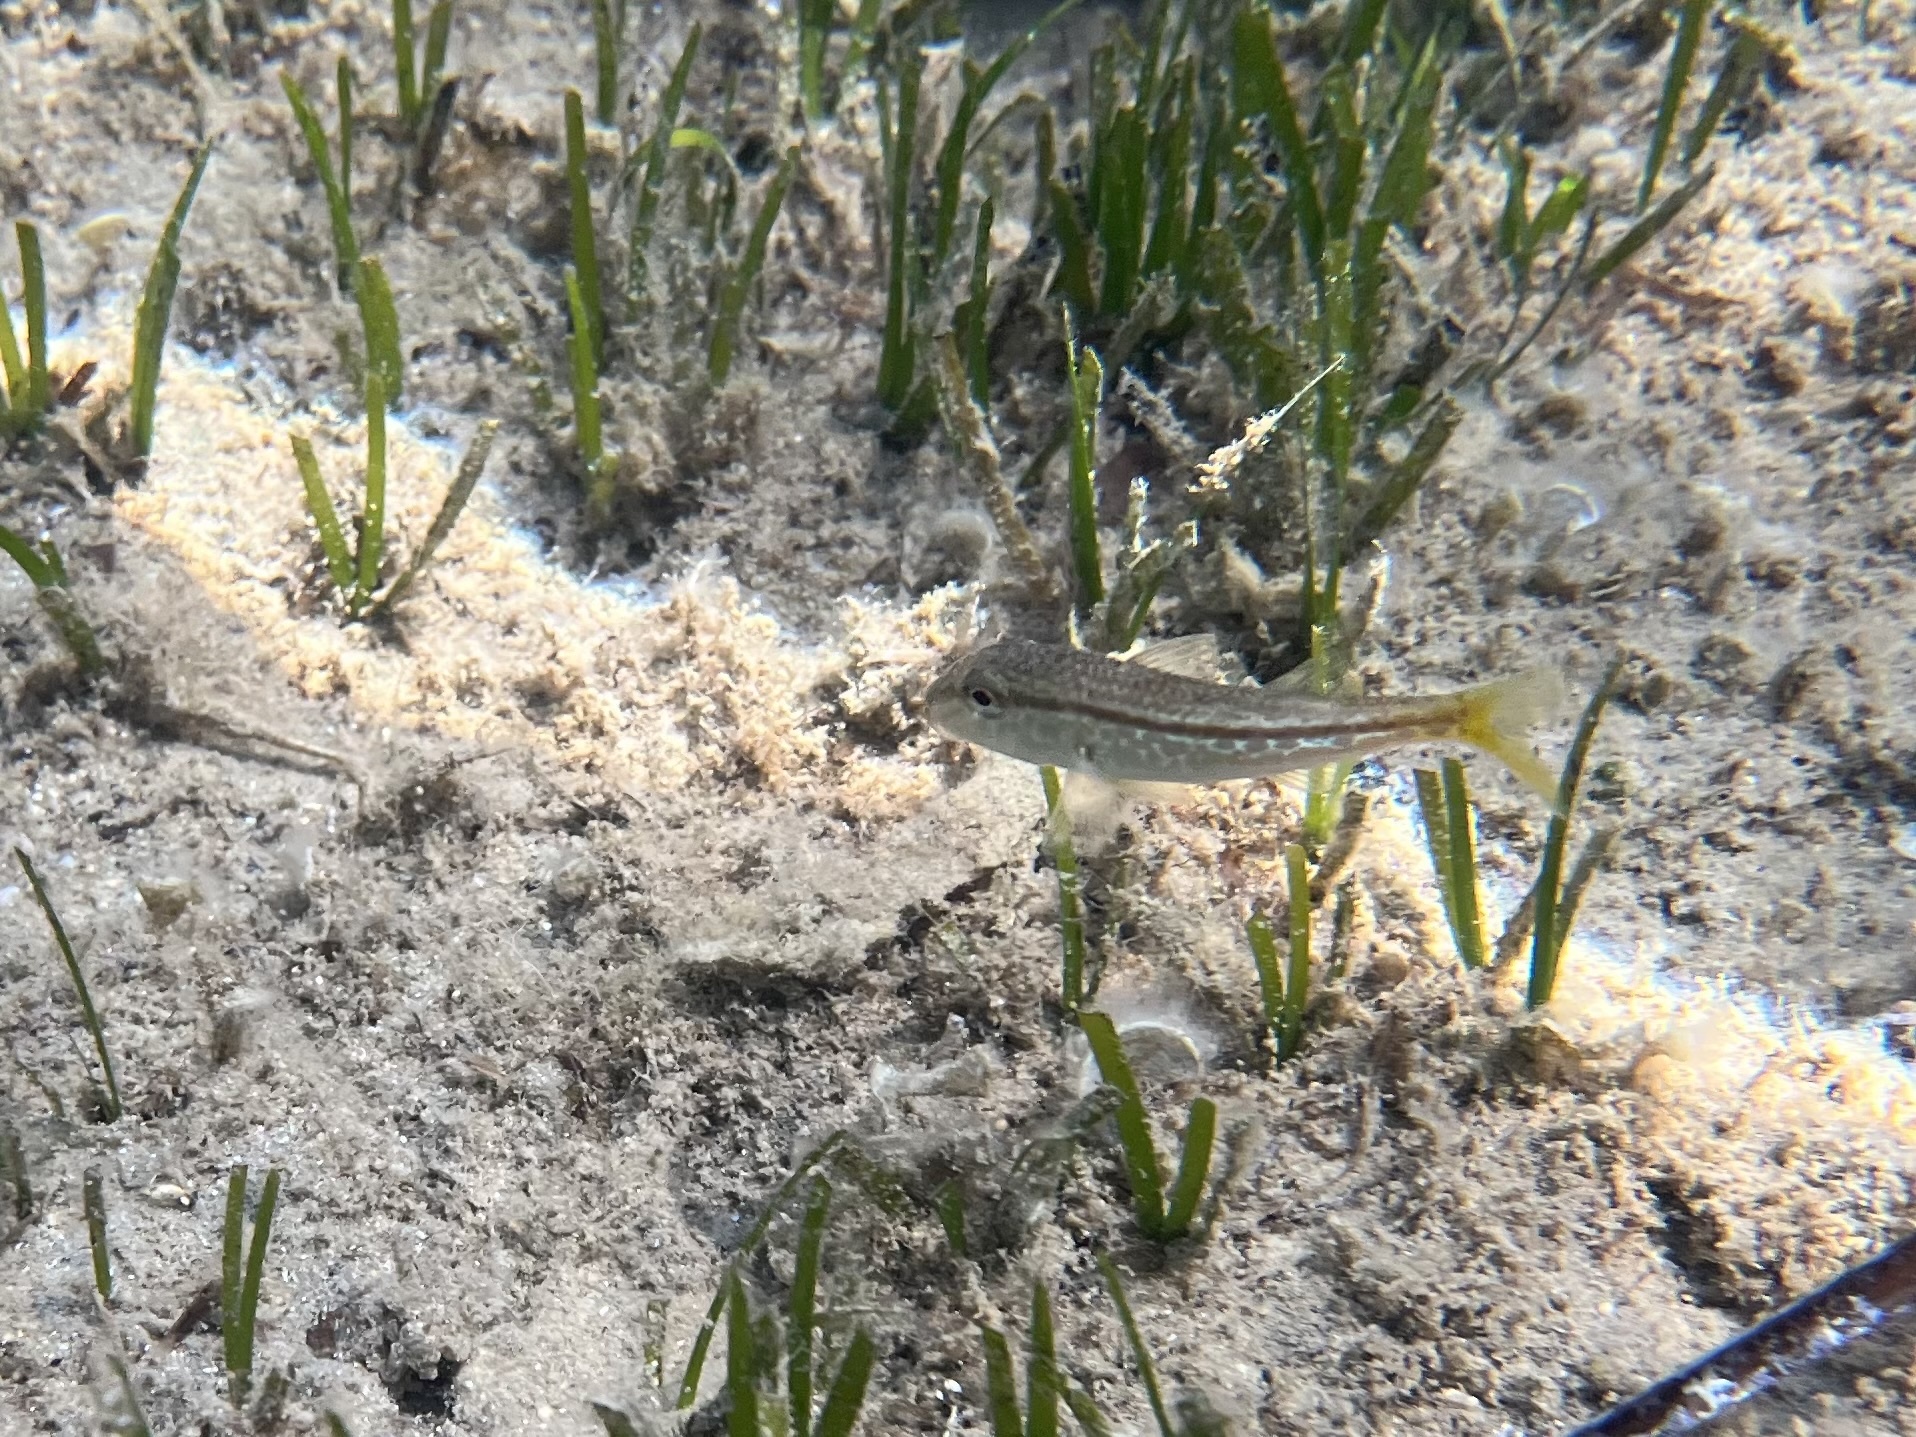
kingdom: Animalia
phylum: Chordata
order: Perciformes
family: Mullidae
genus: Mullus
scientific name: Mullus barbatus
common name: Blunt-snouted mullet
